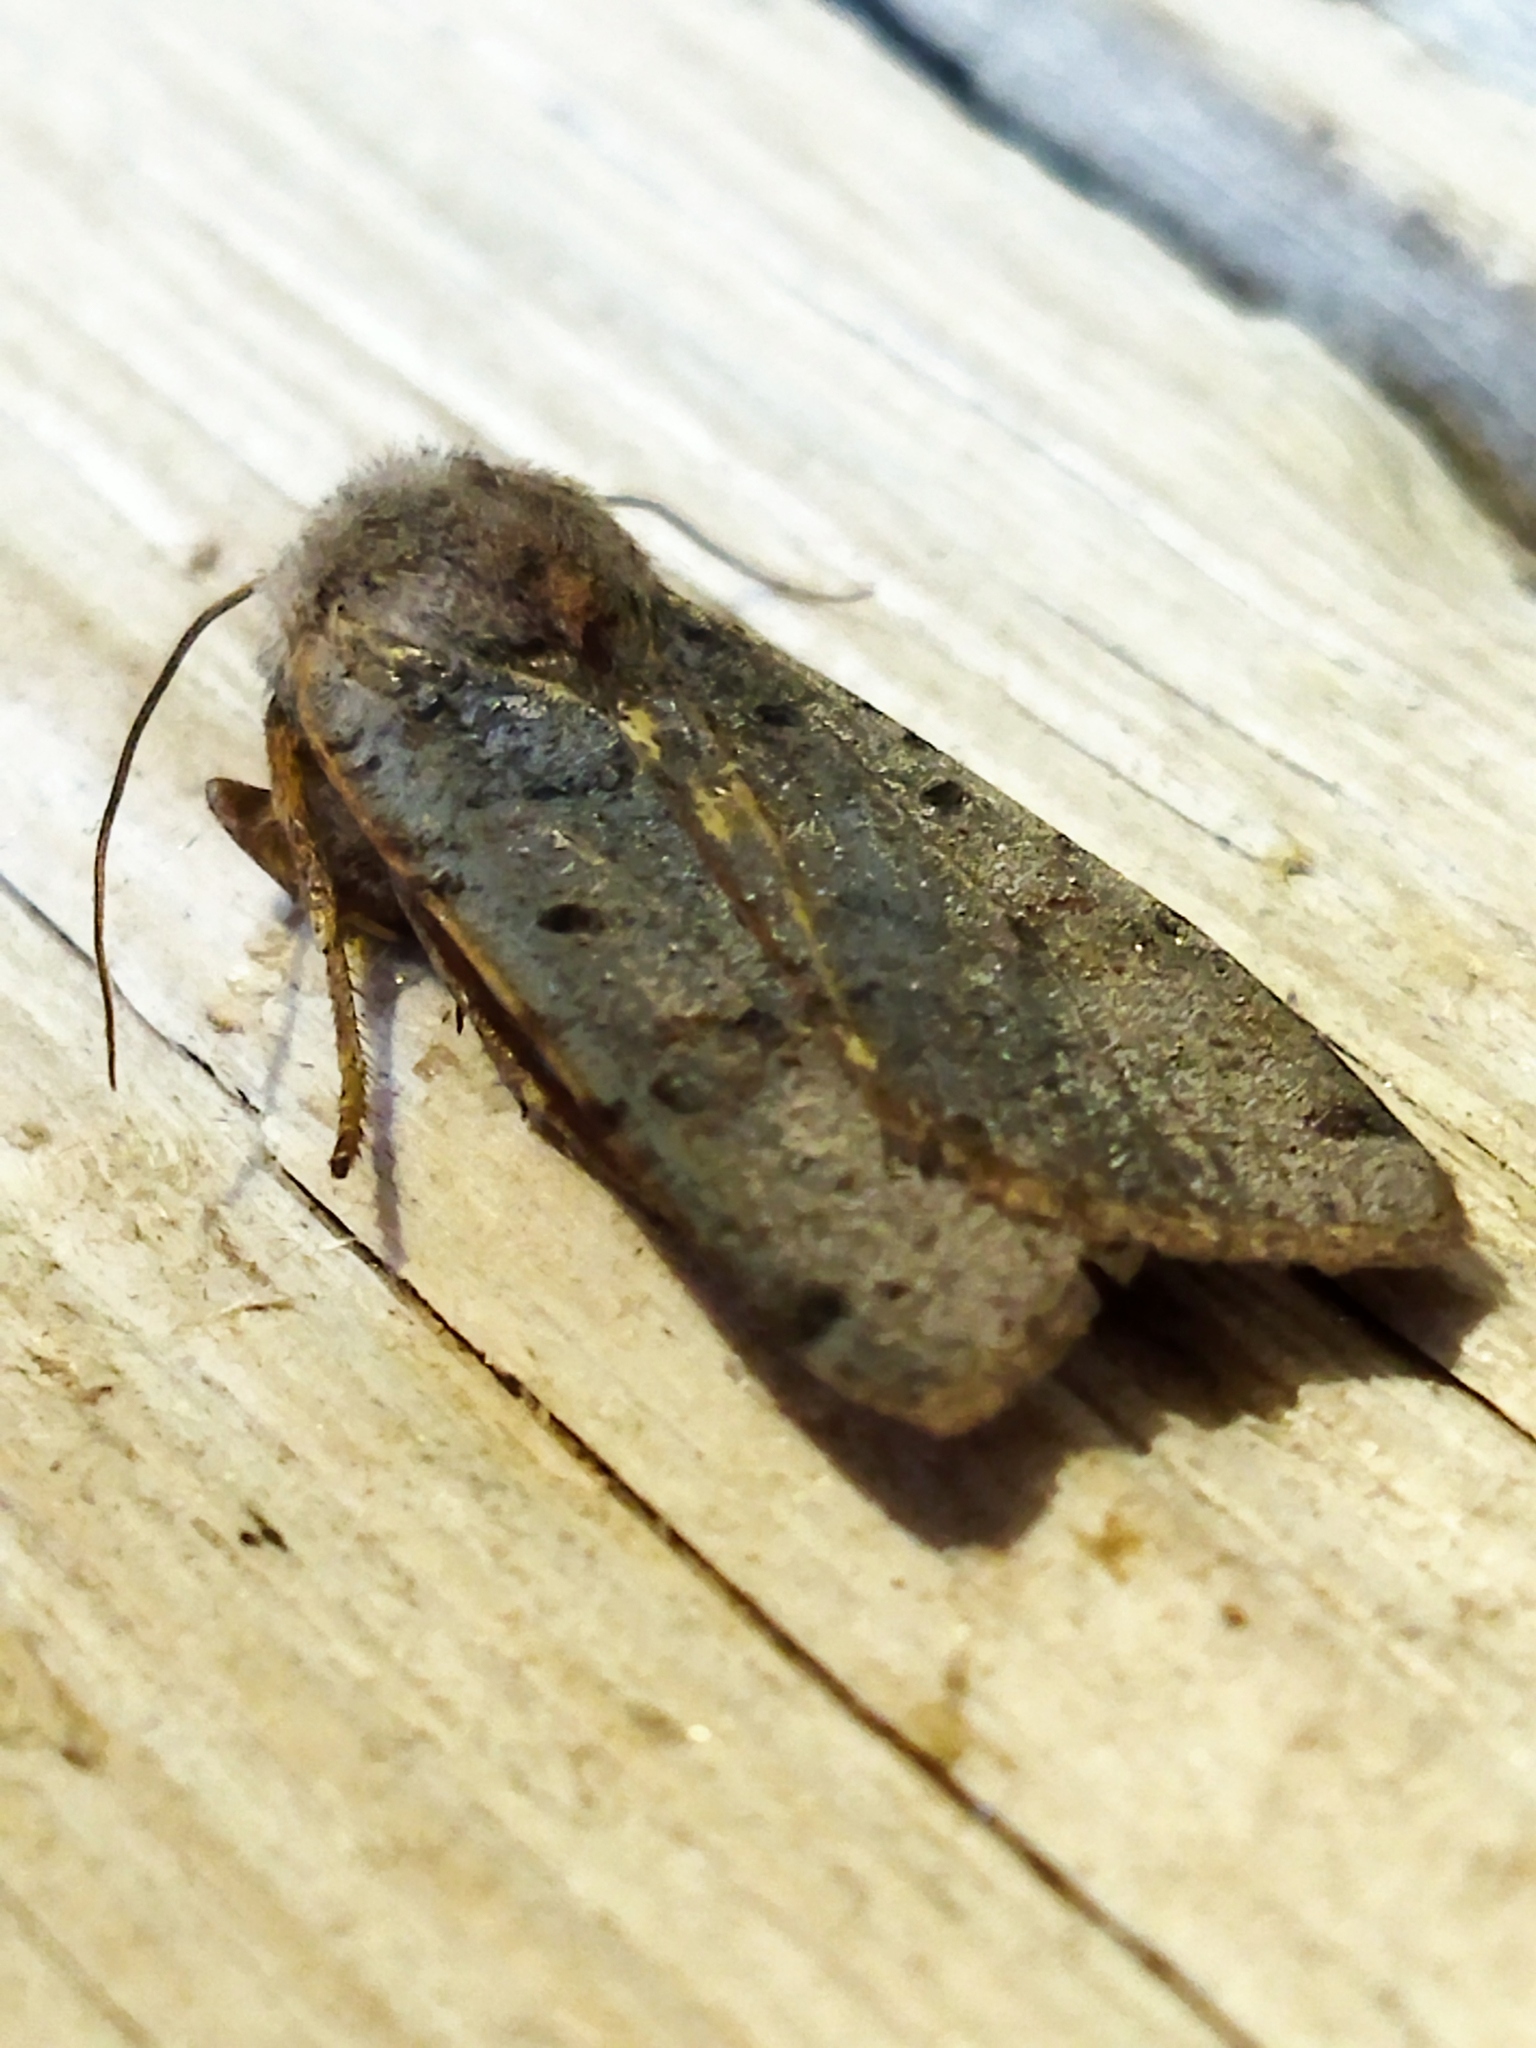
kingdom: Animalia
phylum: Arthropoda
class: Insecta
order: Lepidoptera
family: Noctuidae
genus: Agrochola
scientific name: Agrochola lychnidis
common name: Beaded chestnut
